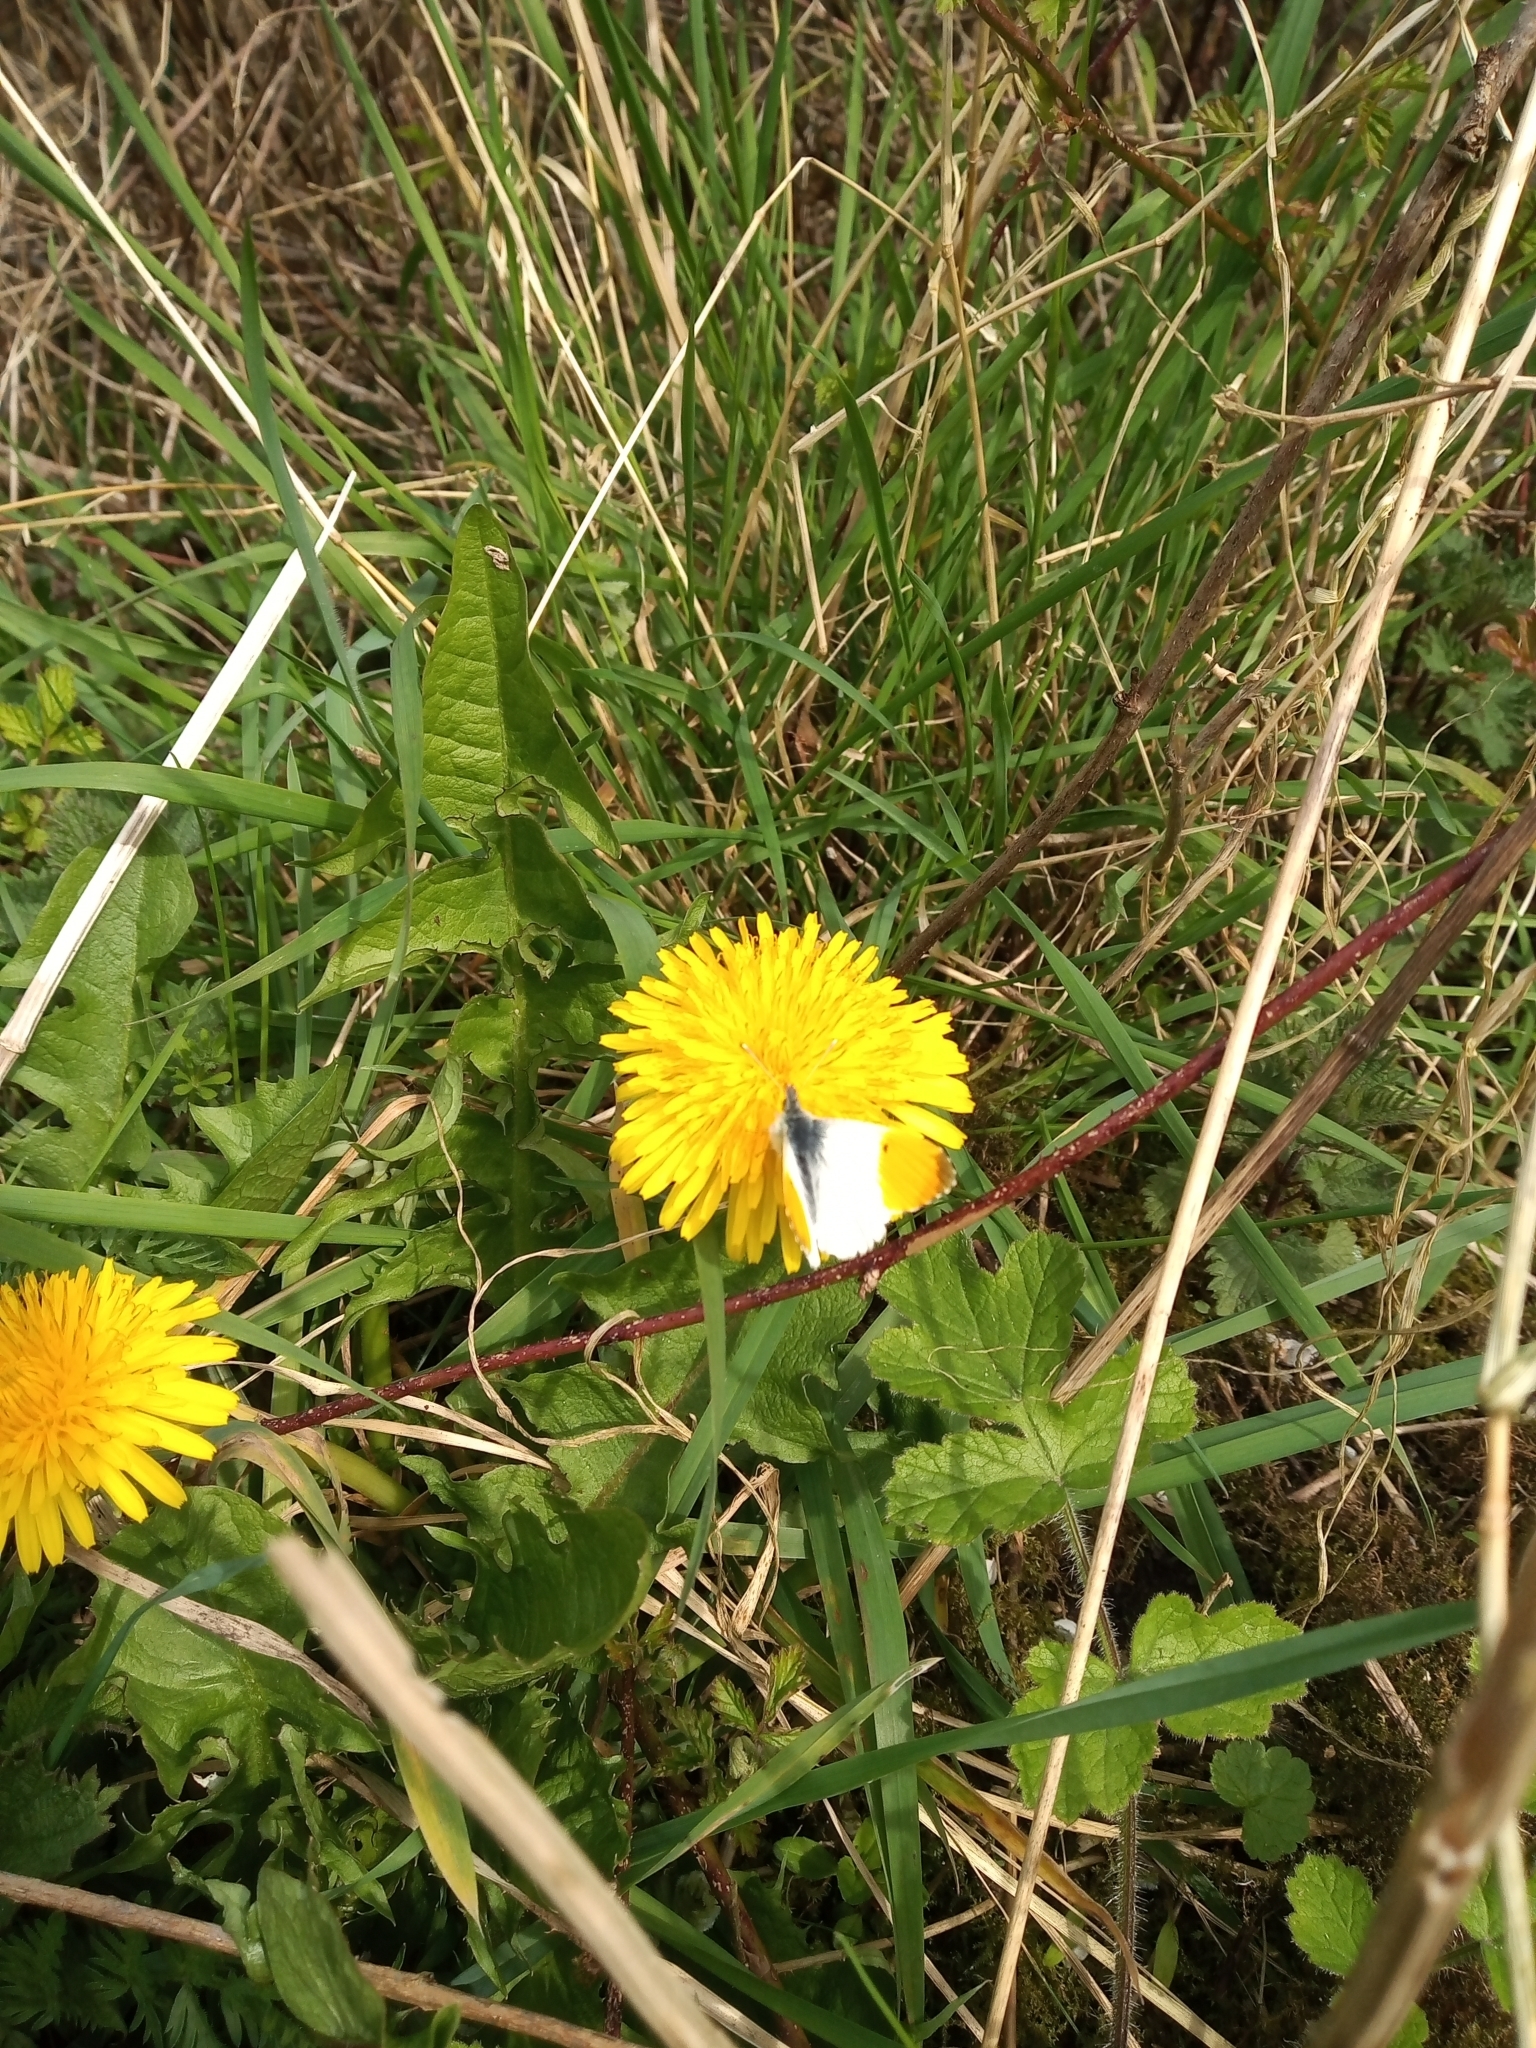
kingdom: Animalia
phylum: Arthropoda
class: Insecta
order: Lepidoptera
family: Pieridae
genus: Anthocharis
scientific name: Anthocharis cardamines
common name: Orange-tip
